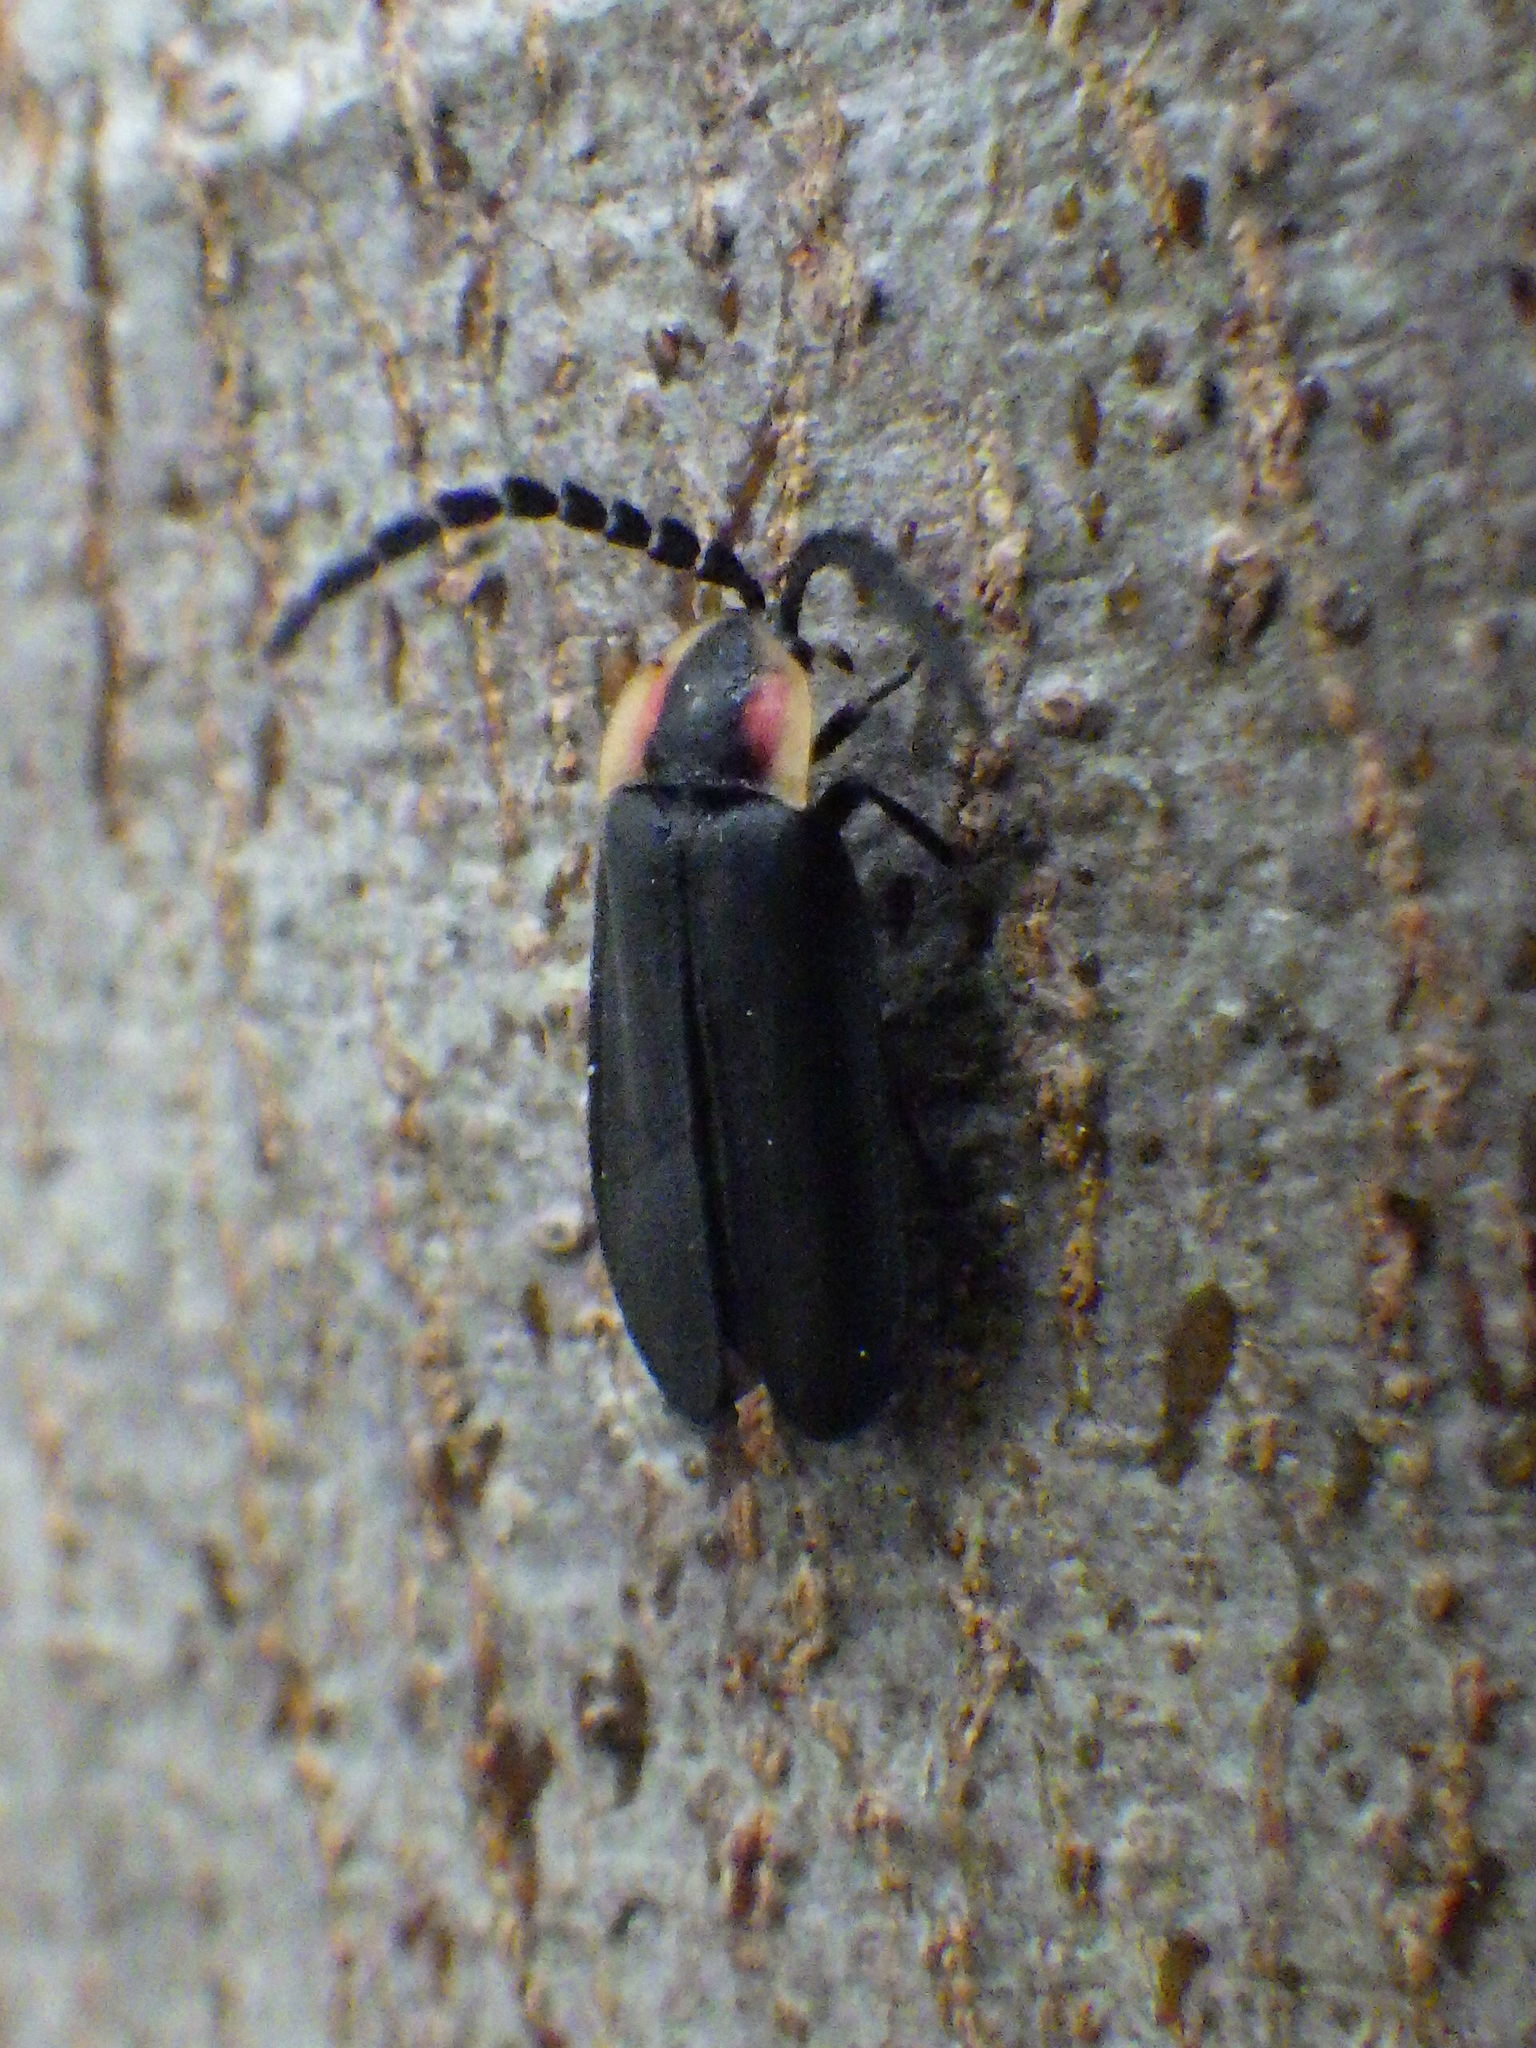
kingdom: Animalia
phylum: Arthropoda
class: Insecta
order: Coleoptera
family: Lampyridae
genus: Lucidota
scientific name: Lucidota atra
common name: Black firefly
